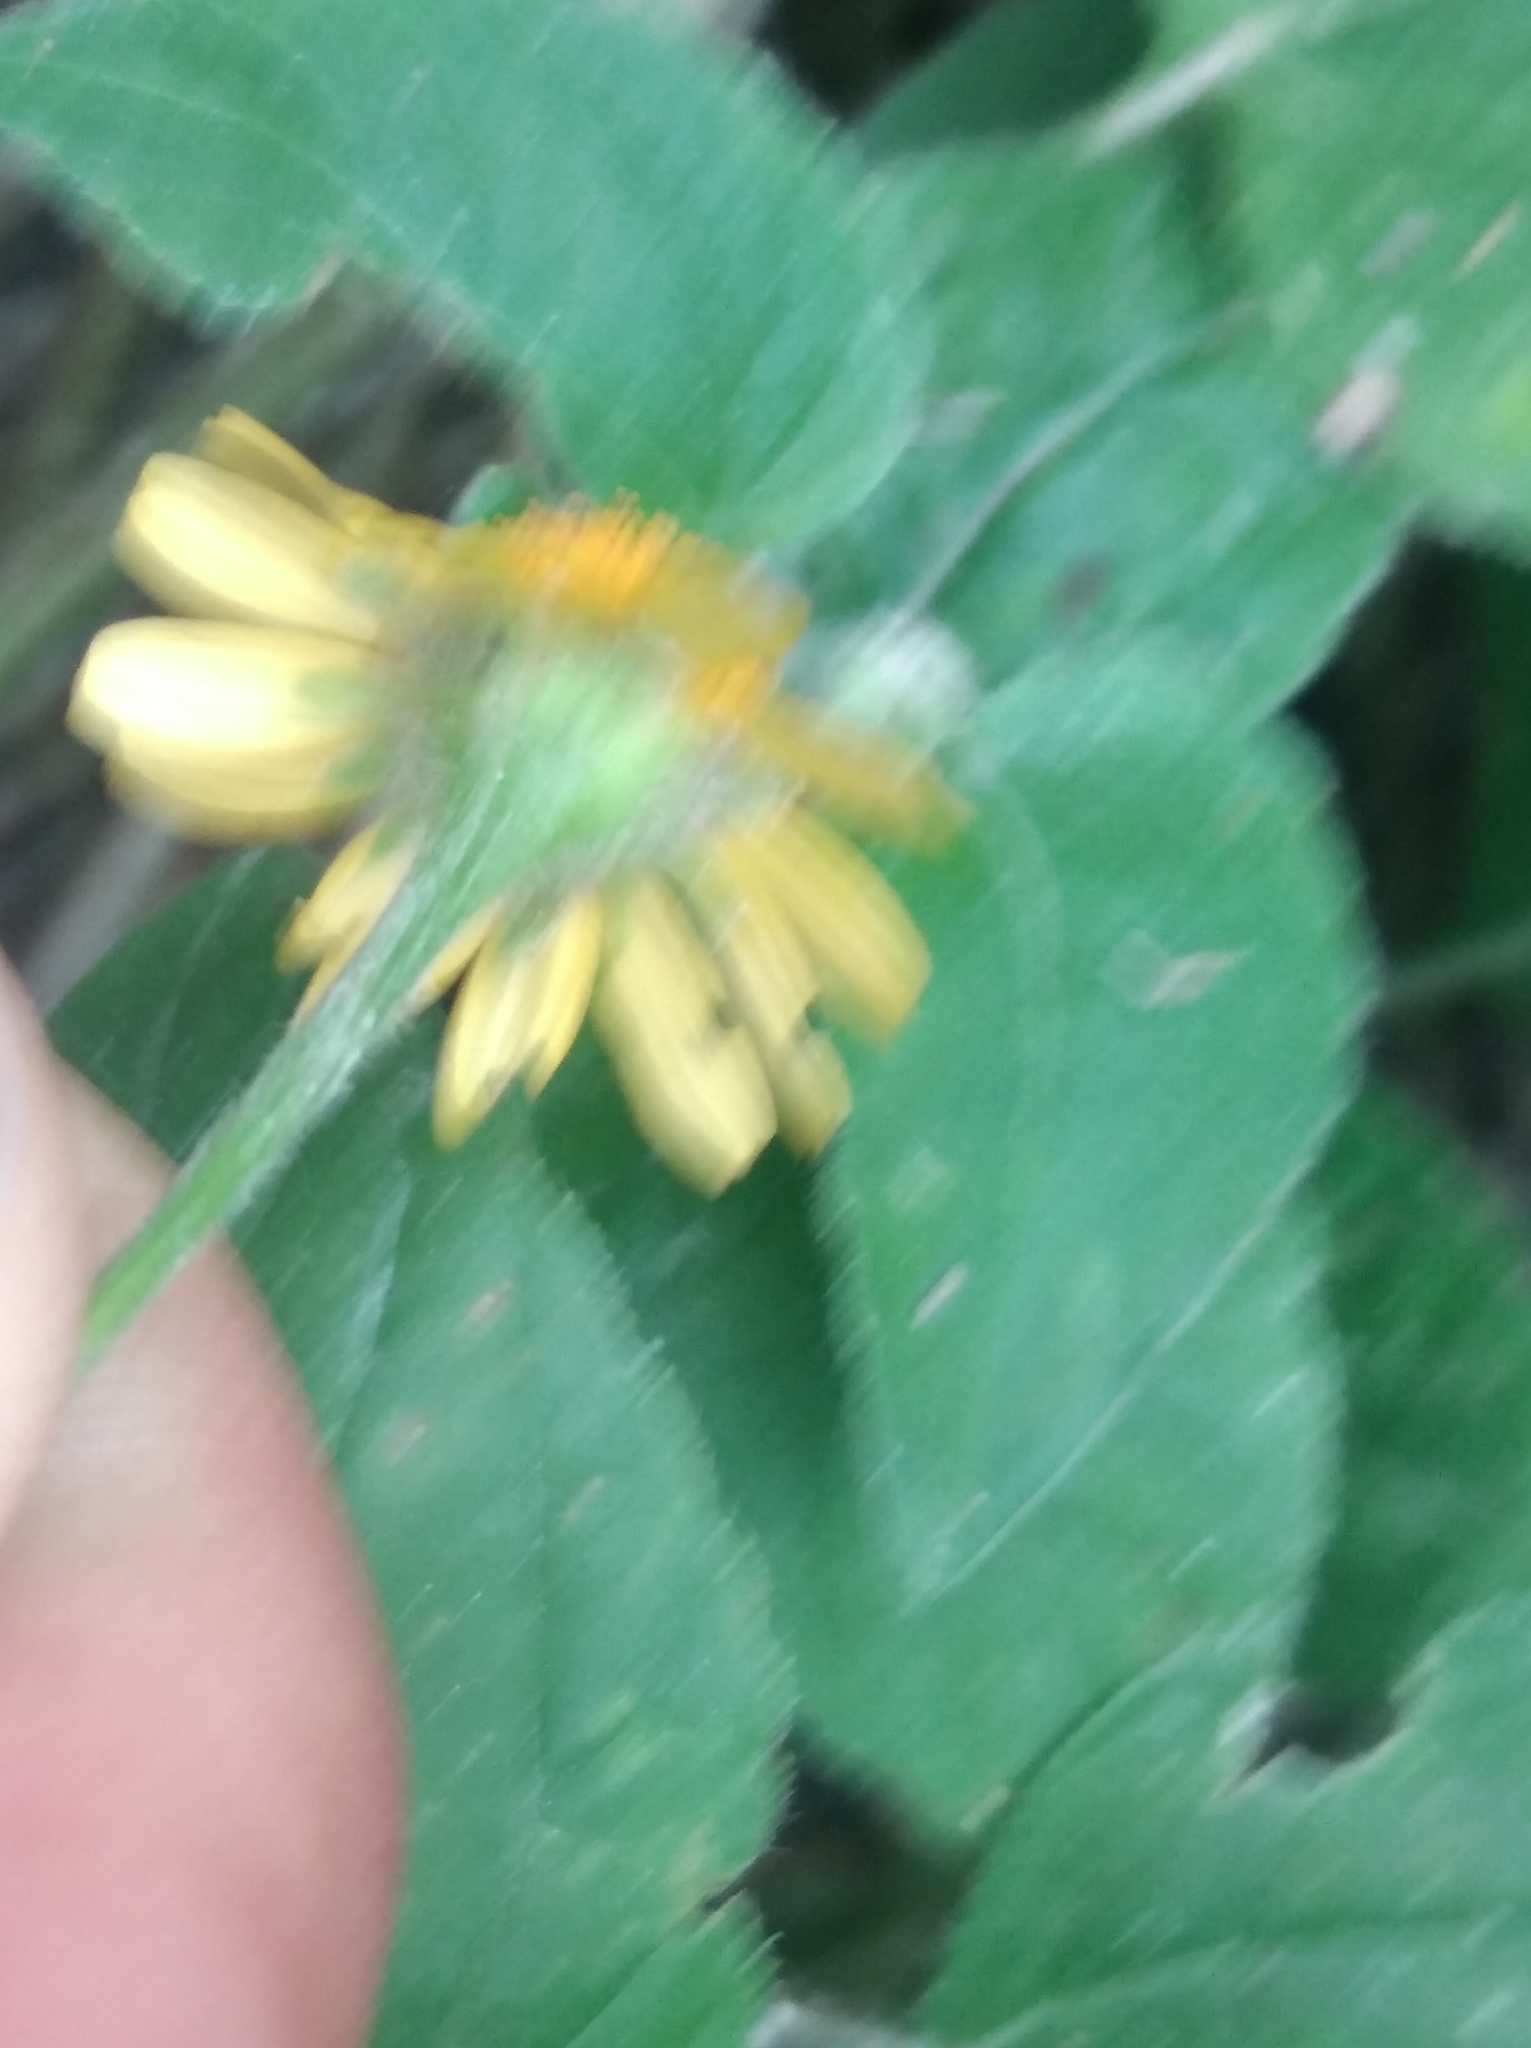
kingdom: Plantae
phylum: Tracheophyta
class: Magnoliopsida
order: Asterales
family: Asteraceae
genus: Acmella
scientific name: Acmella repens
